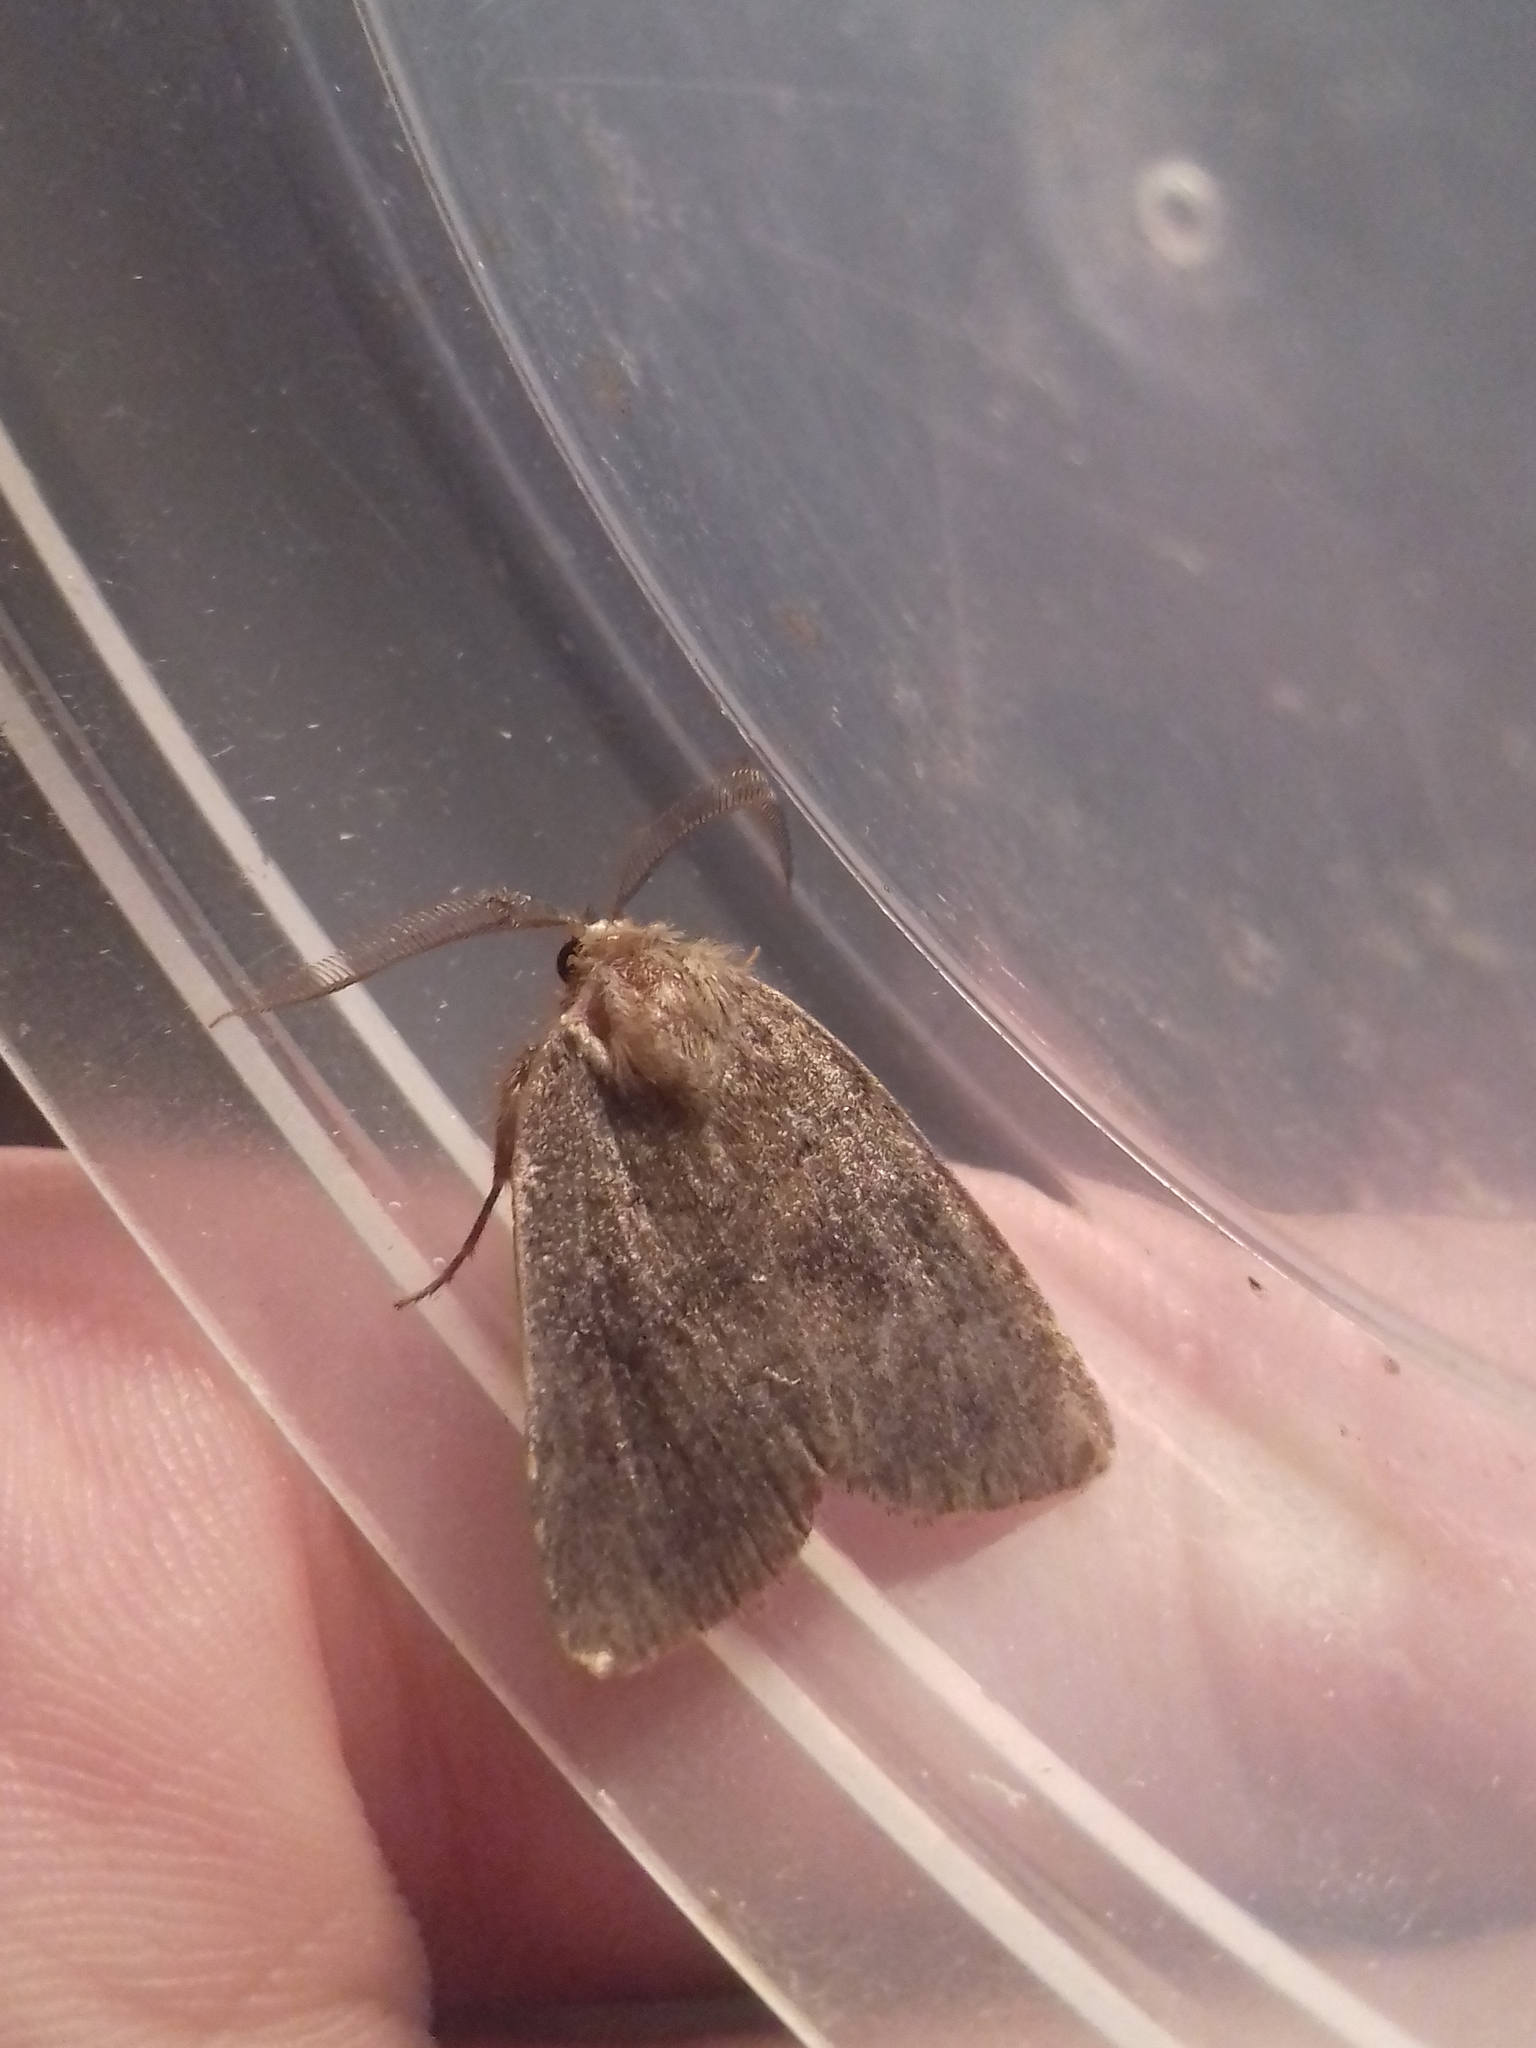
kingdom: Animalia
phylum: Arthropoda
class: Insecta
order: Lepidoptera
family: Noctuidae
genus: Charanyca
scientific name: Charanyca ferruginea
